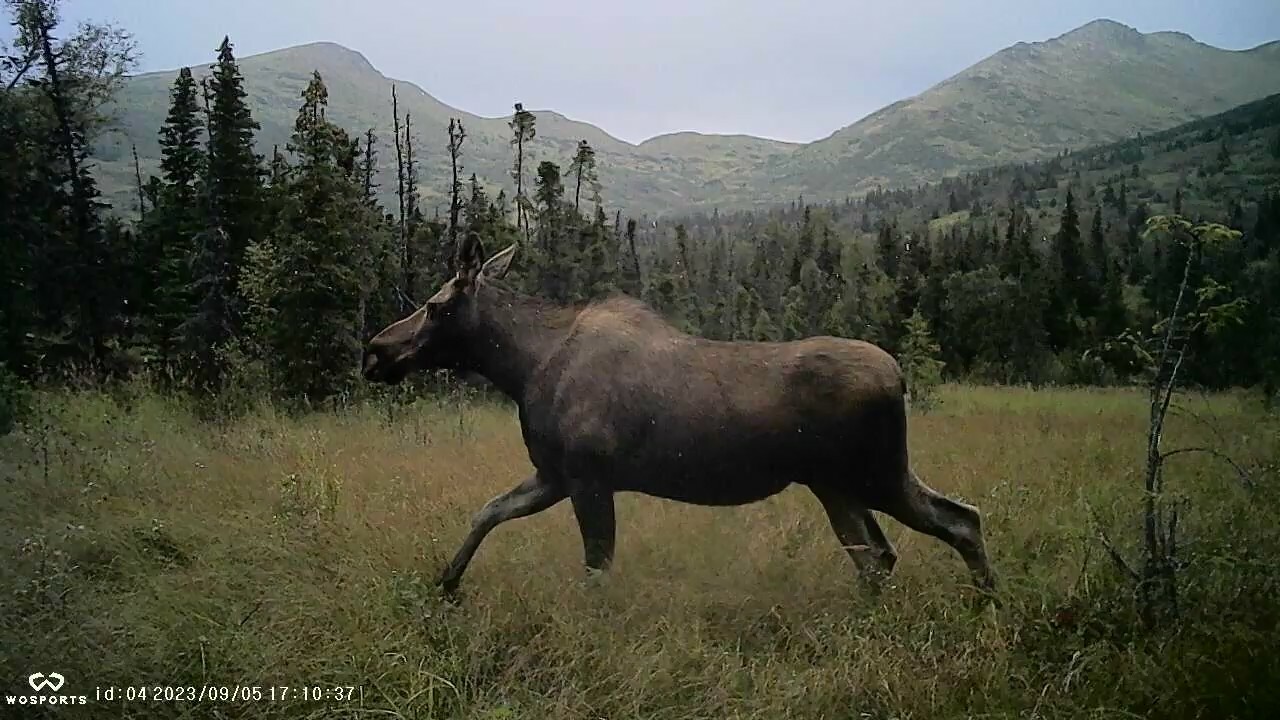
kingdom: Animalia
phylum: Chordata
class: Mammalia
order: Artiodactyla
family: Cervidae
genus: Alces
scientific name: Alces alces
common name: Moose
